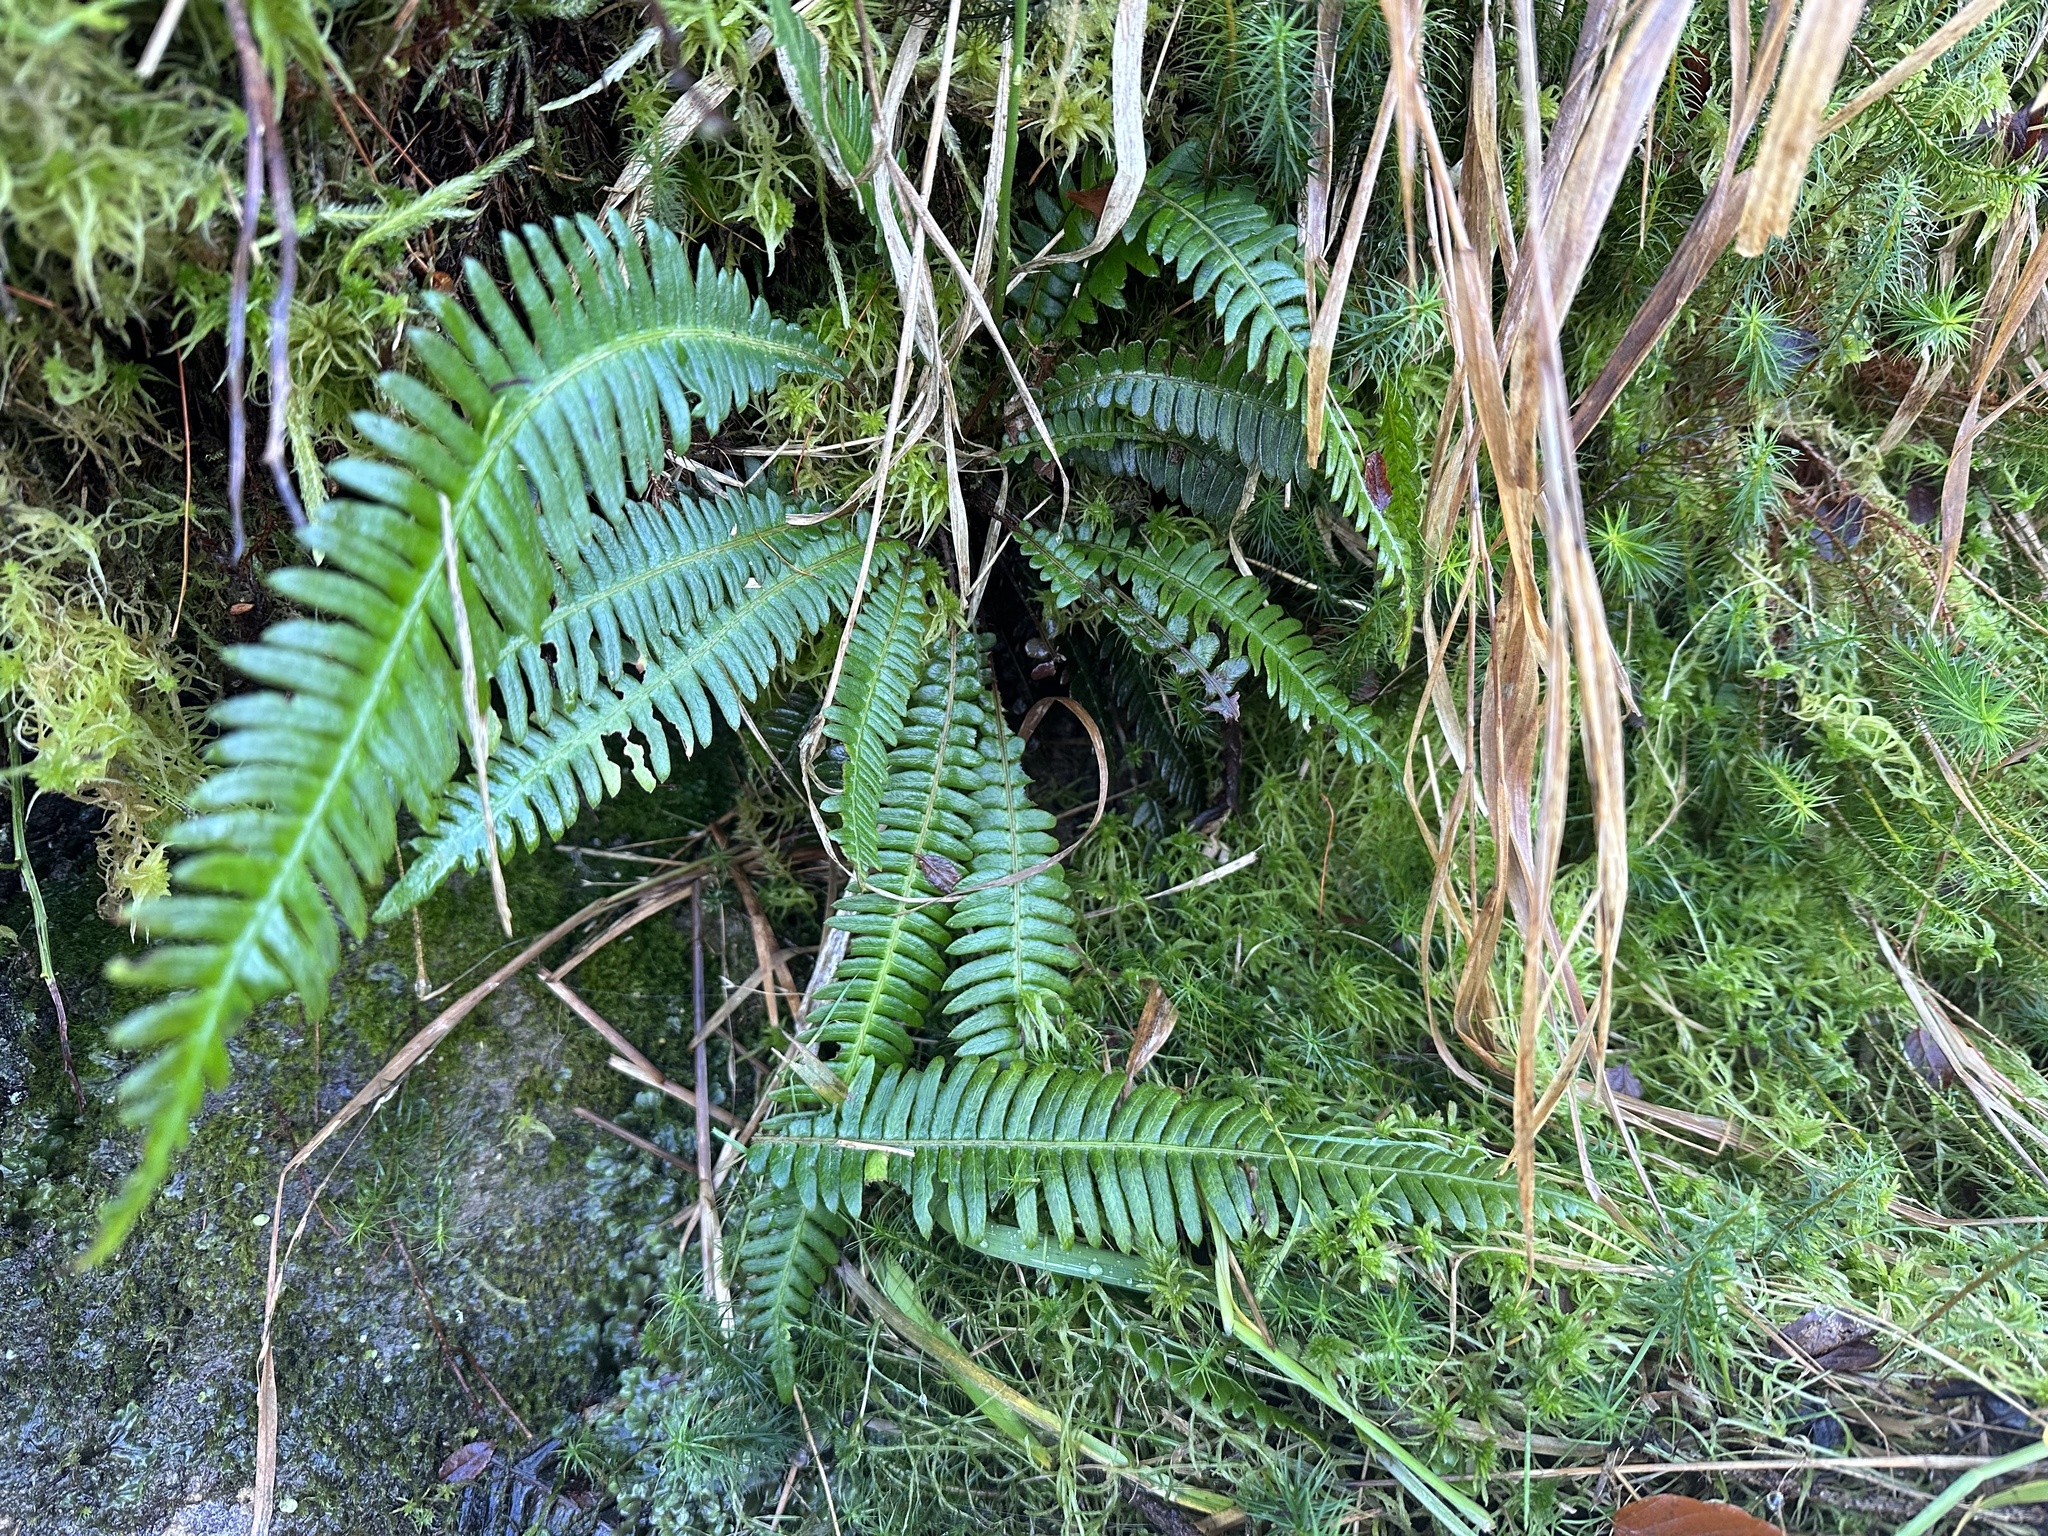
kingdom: Plantae
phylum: Tracheophyta
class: Polypodiopsida
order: Polypodiales
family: Blechnaceae
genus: Struthiopteris
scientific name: Struthiopteris spicant
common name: Deer fern
